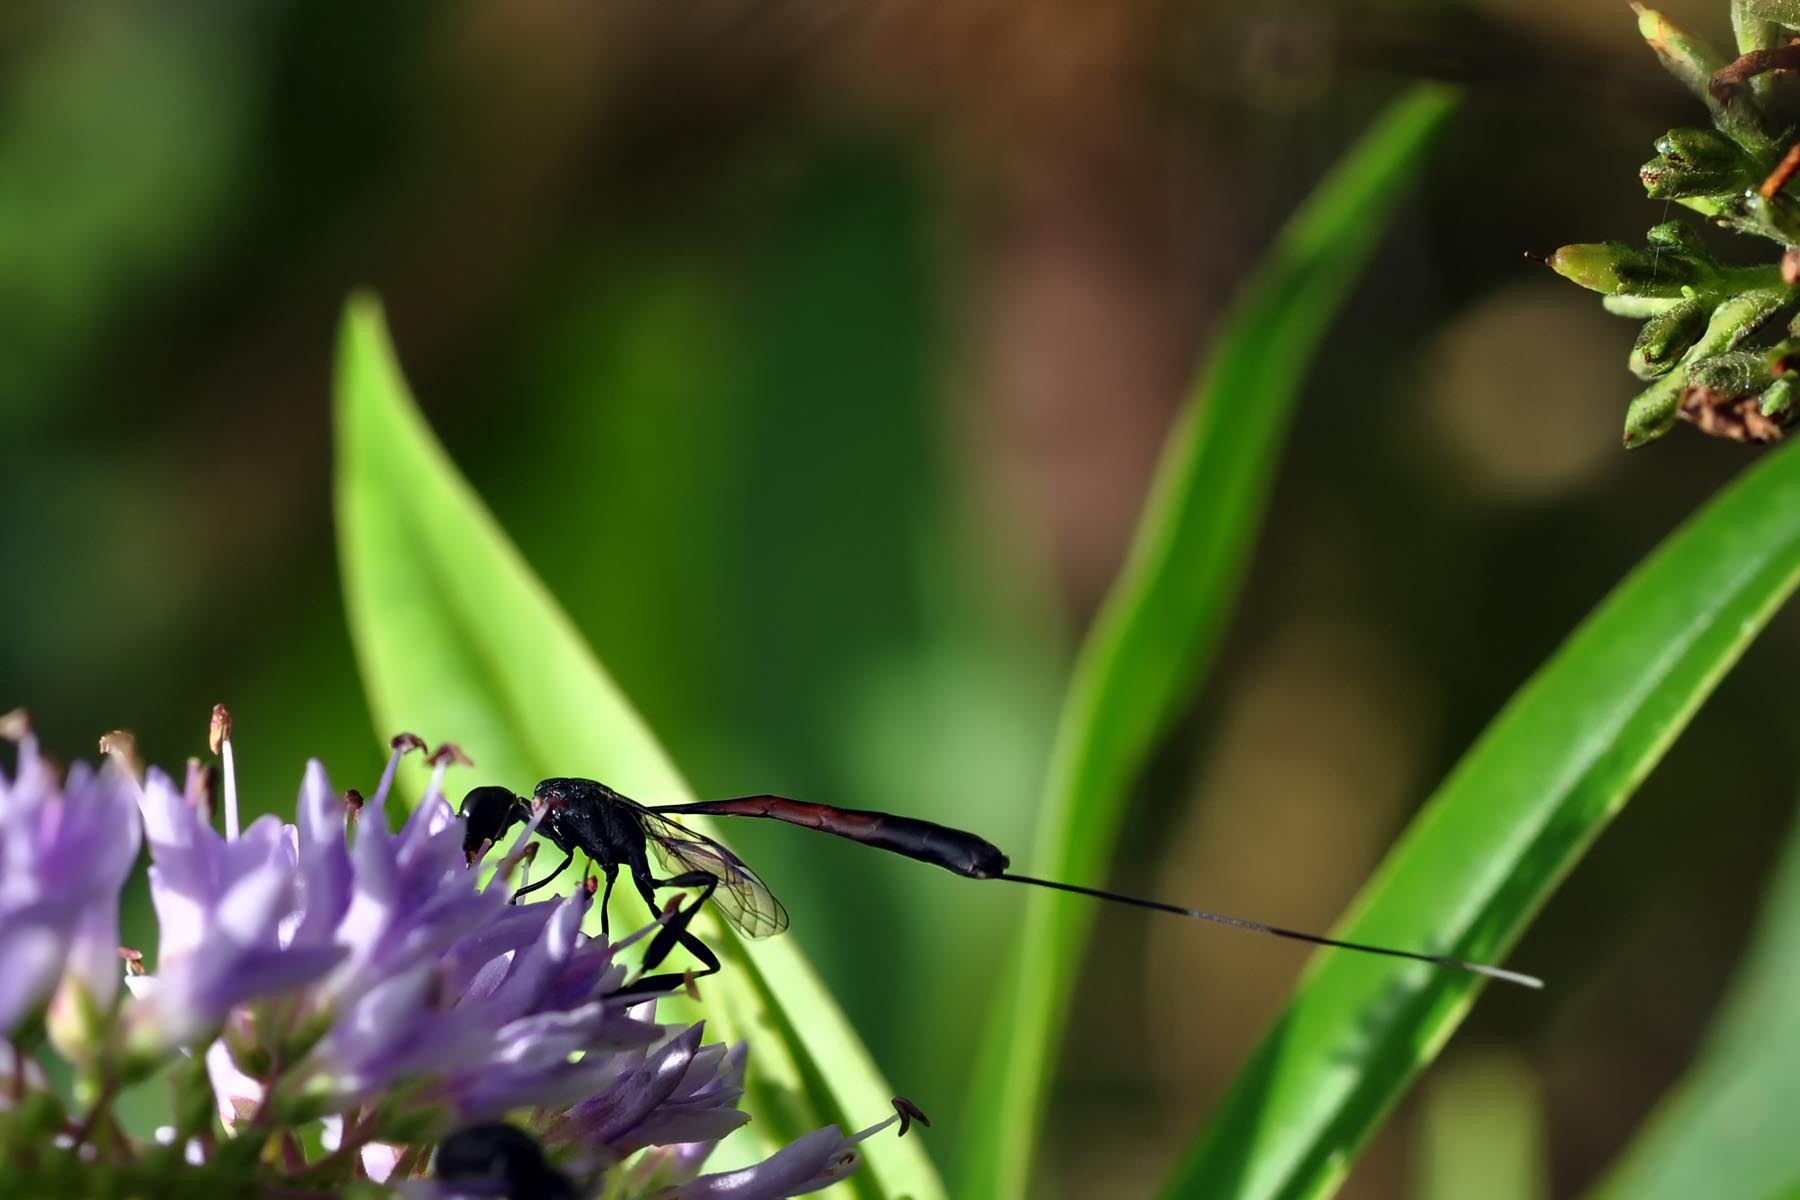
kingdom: Animalia
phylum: Arthropoda
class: Insecta
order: Hymenoptera
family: Gasteruptiidae
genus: Gasteruption
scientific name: Gasteruption jaculator
